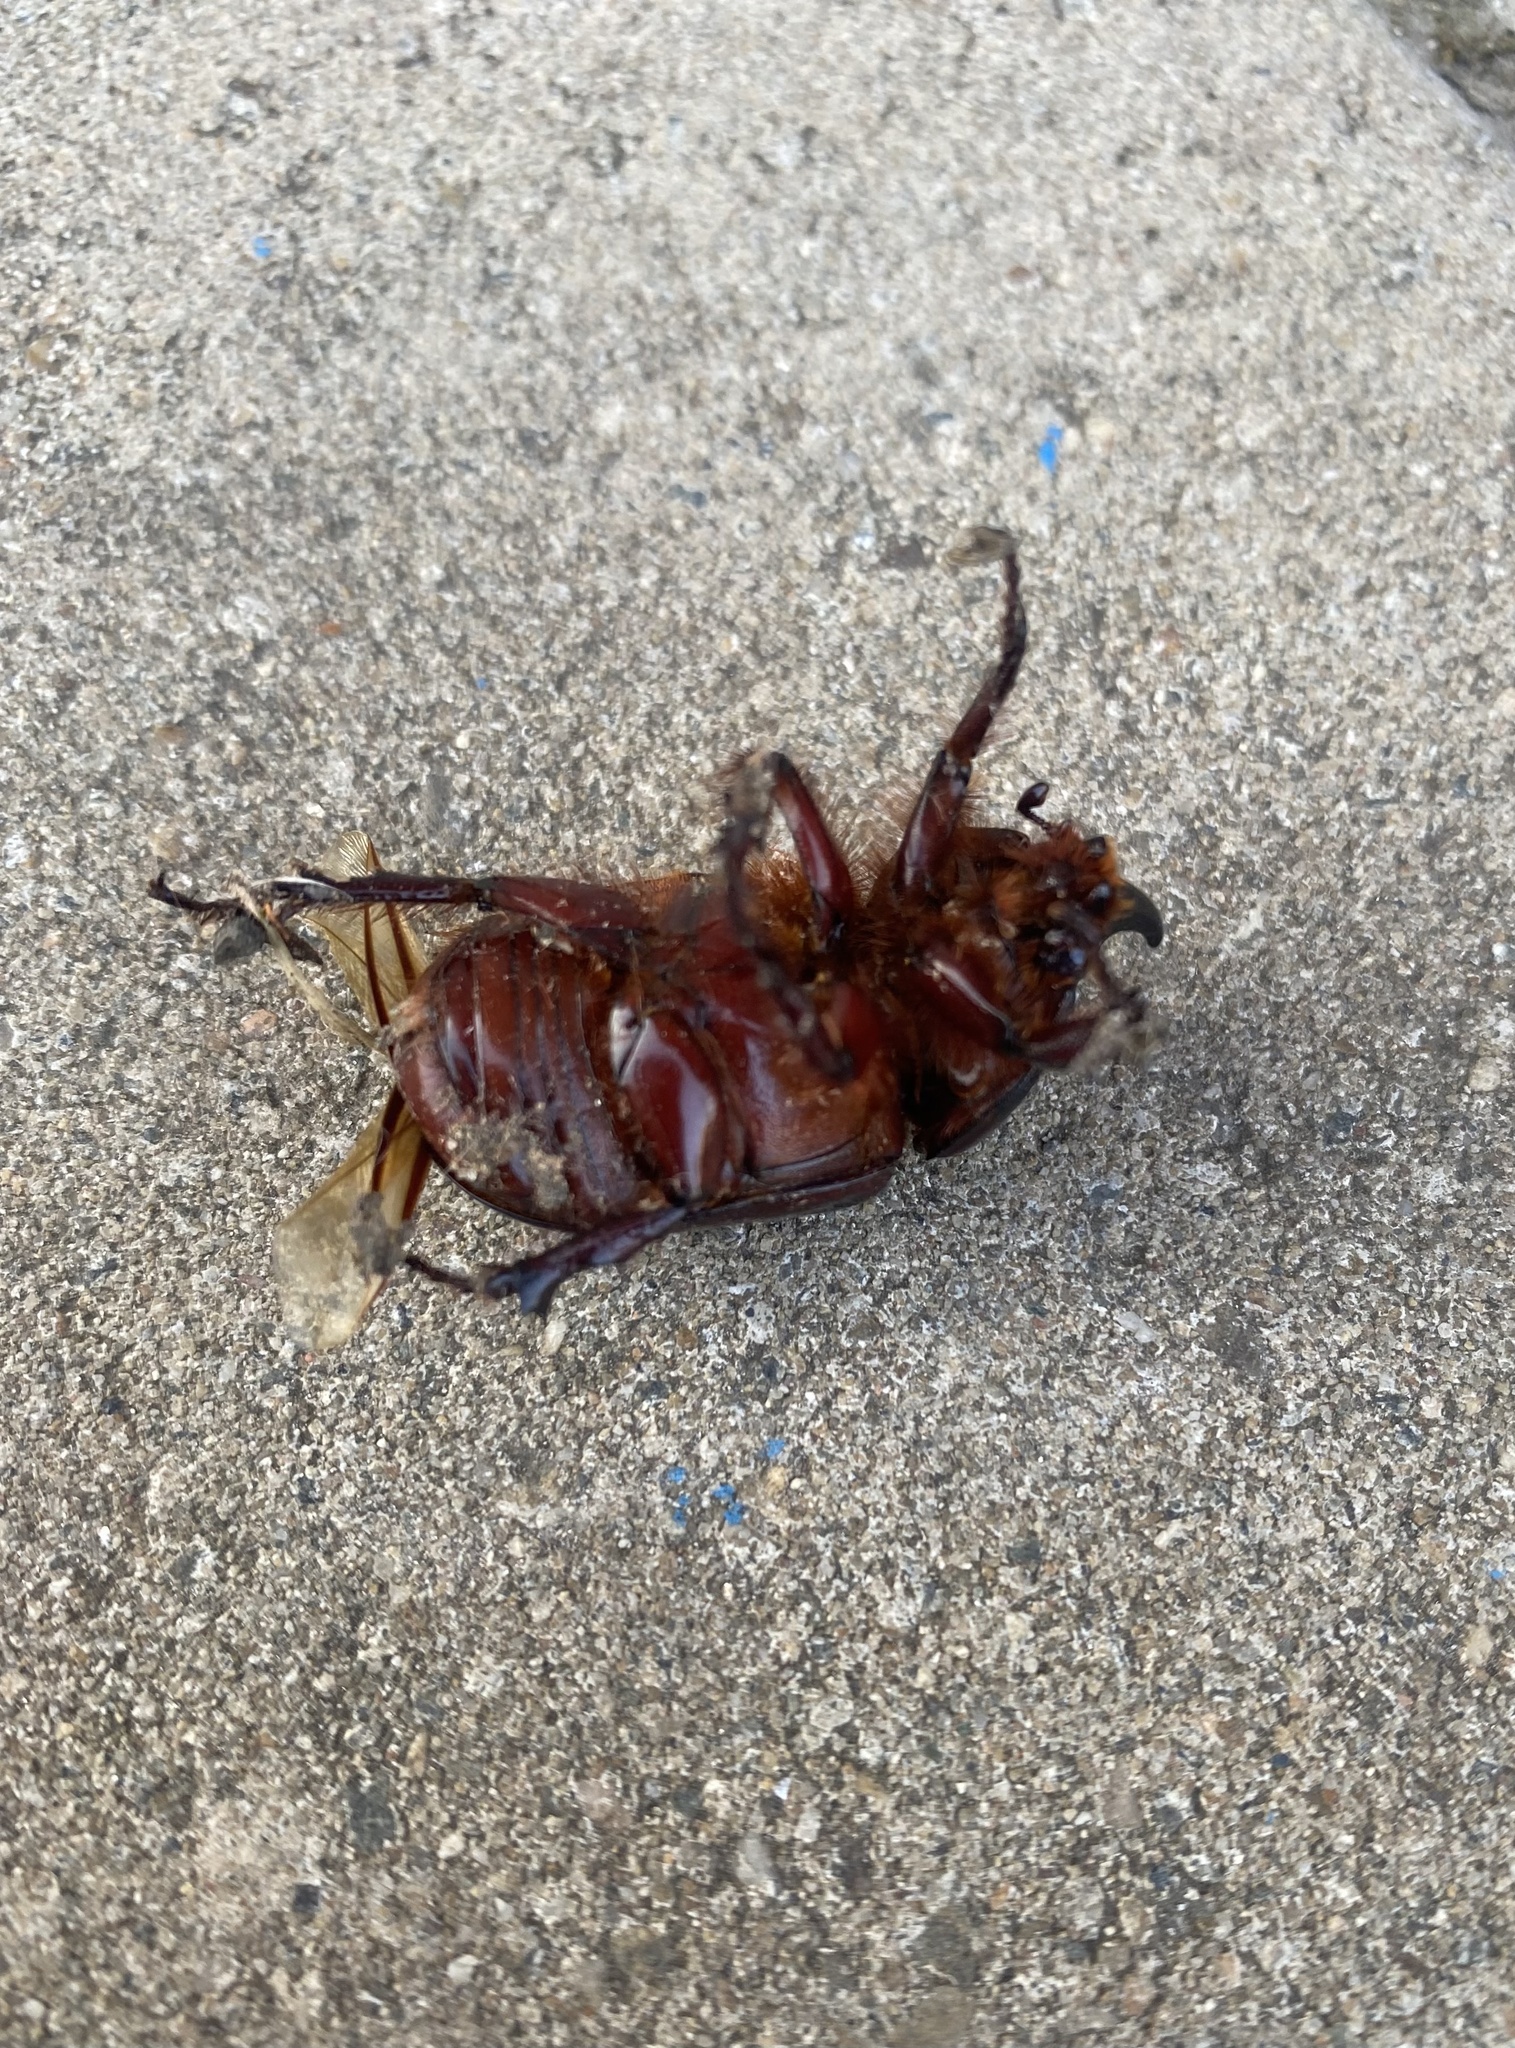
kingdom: Animalia
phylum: Arthropoda
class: Insecta
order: Coleoptera
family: Scarabaeidae
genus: Oryctes
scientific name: Oryctes nasicornis
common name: European rhinoceros beetle
